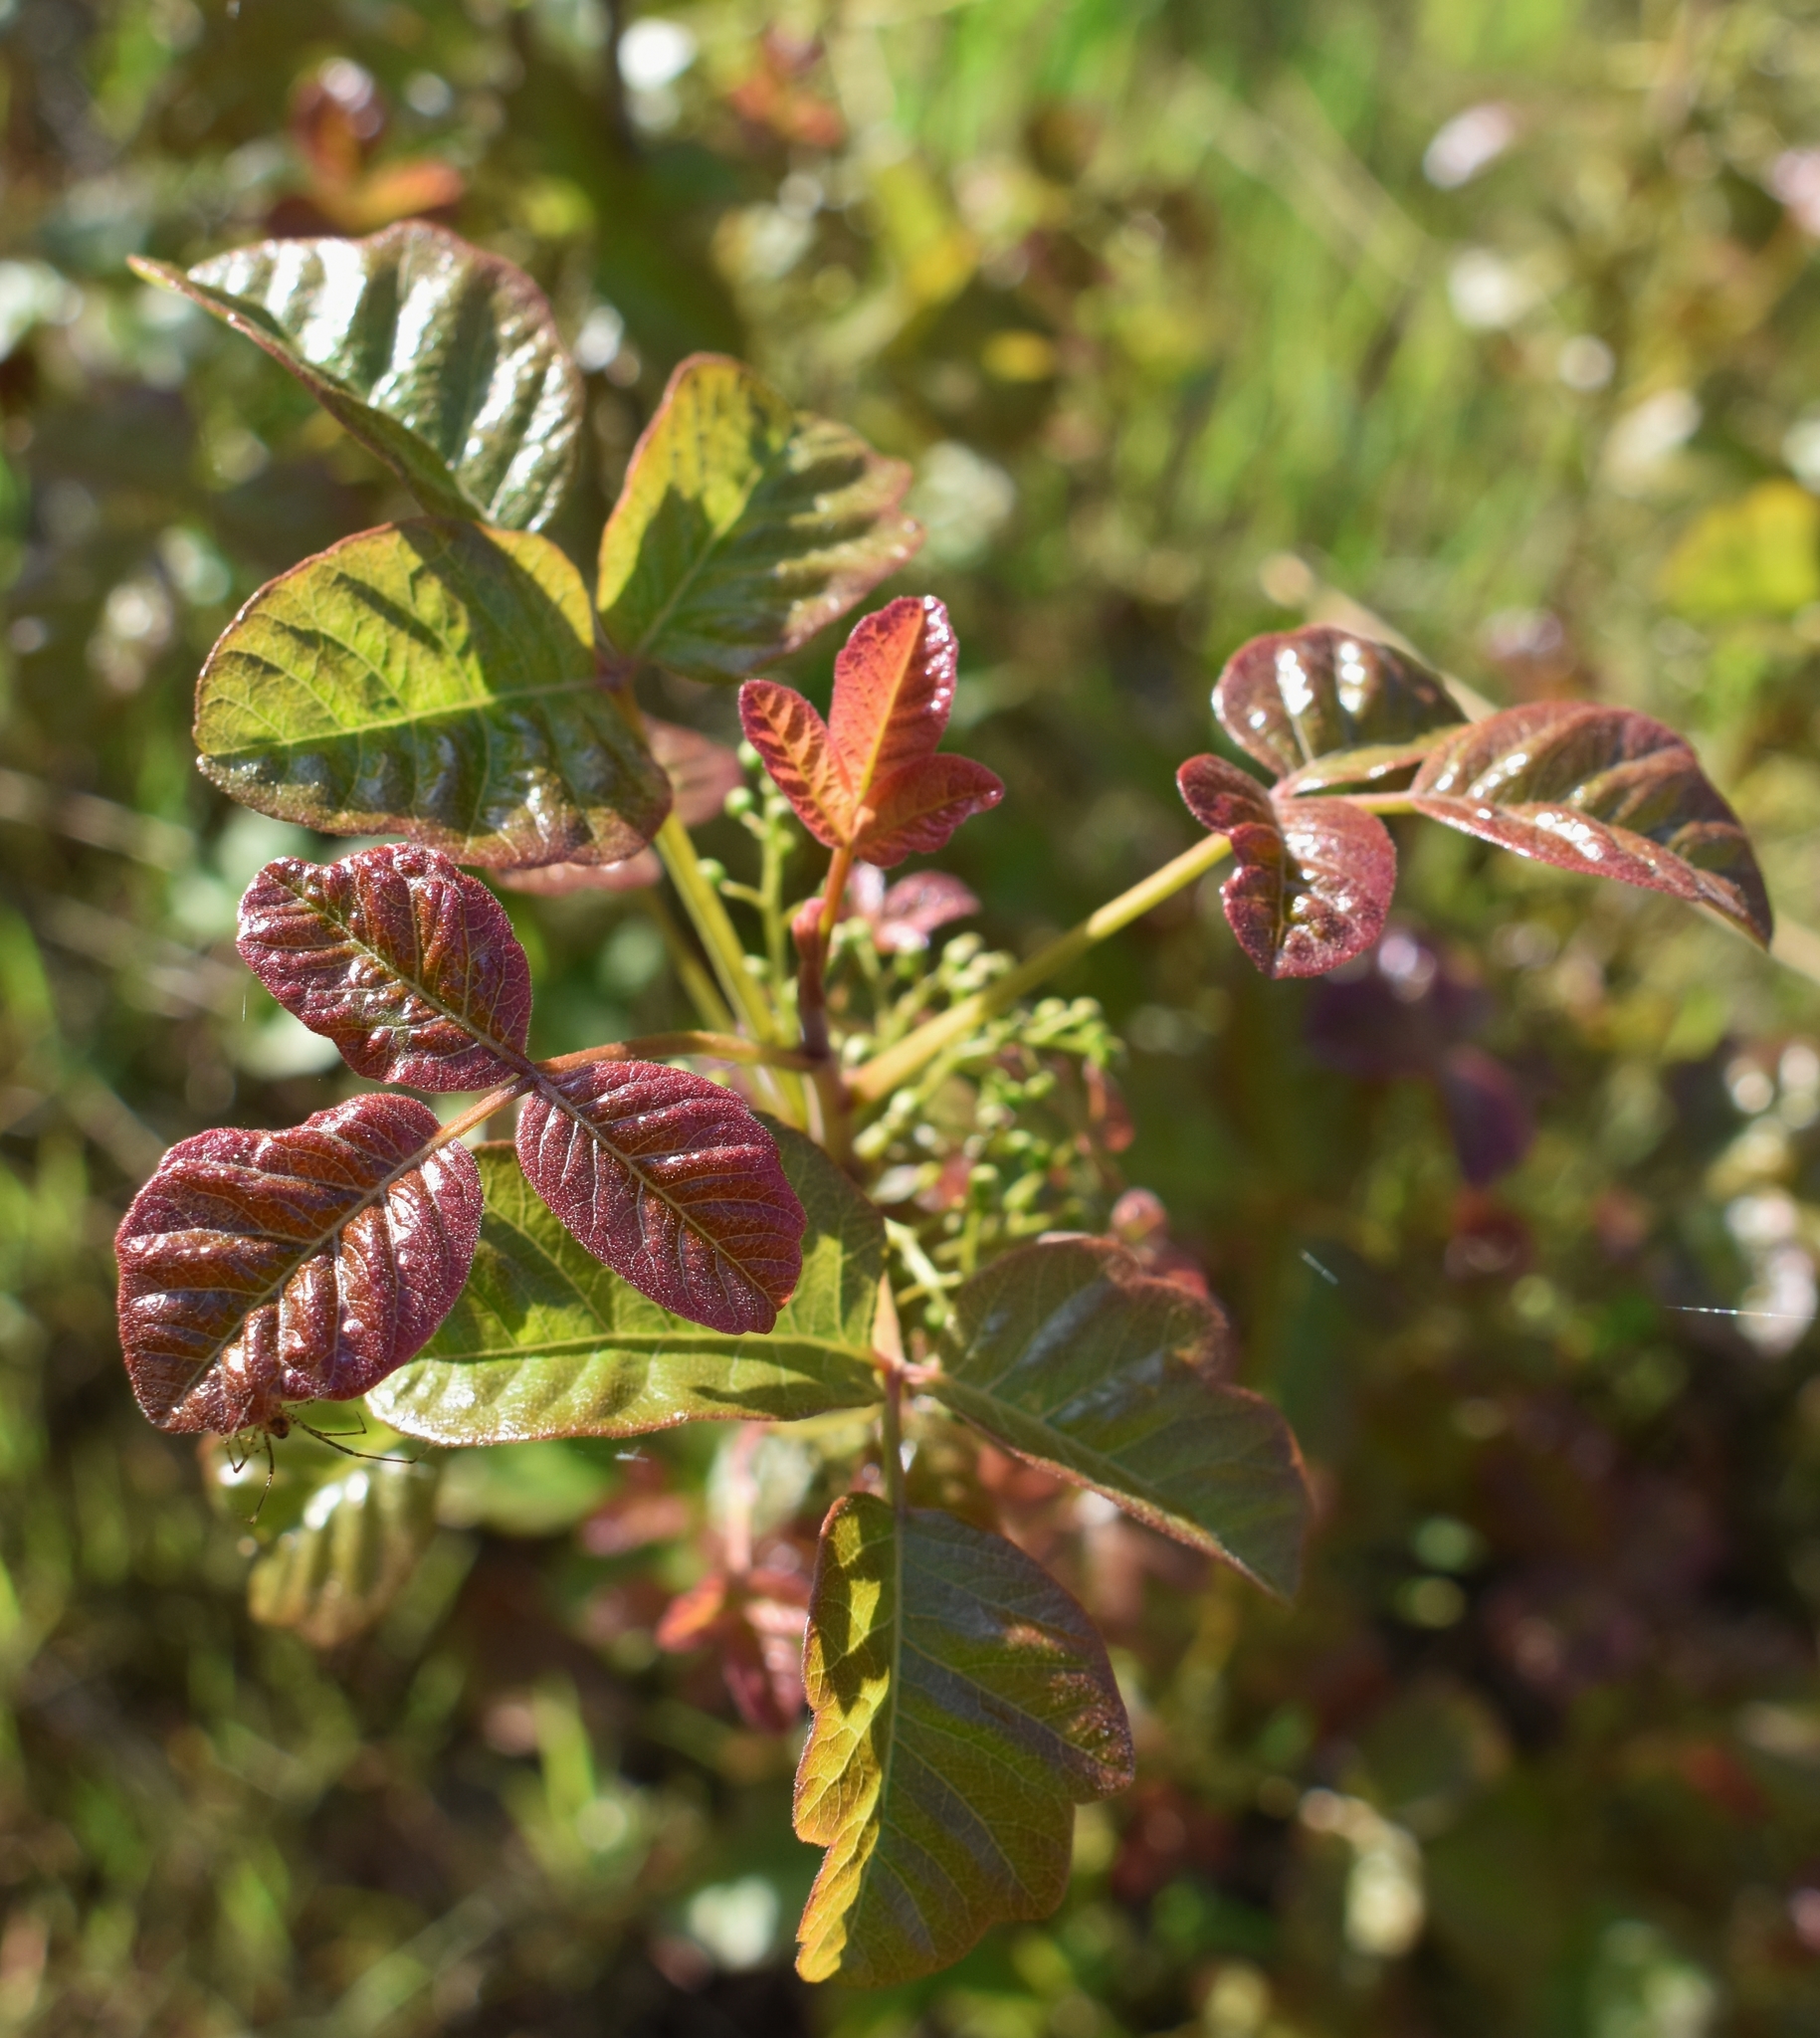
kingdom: Plantae
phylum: Tracheophyta
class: Magnoliopsida
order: Sapindales
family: Anacardiaceae
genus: Toxicodendron
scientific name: Toxicodendron diversilobum
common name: Pacific poison-oak
